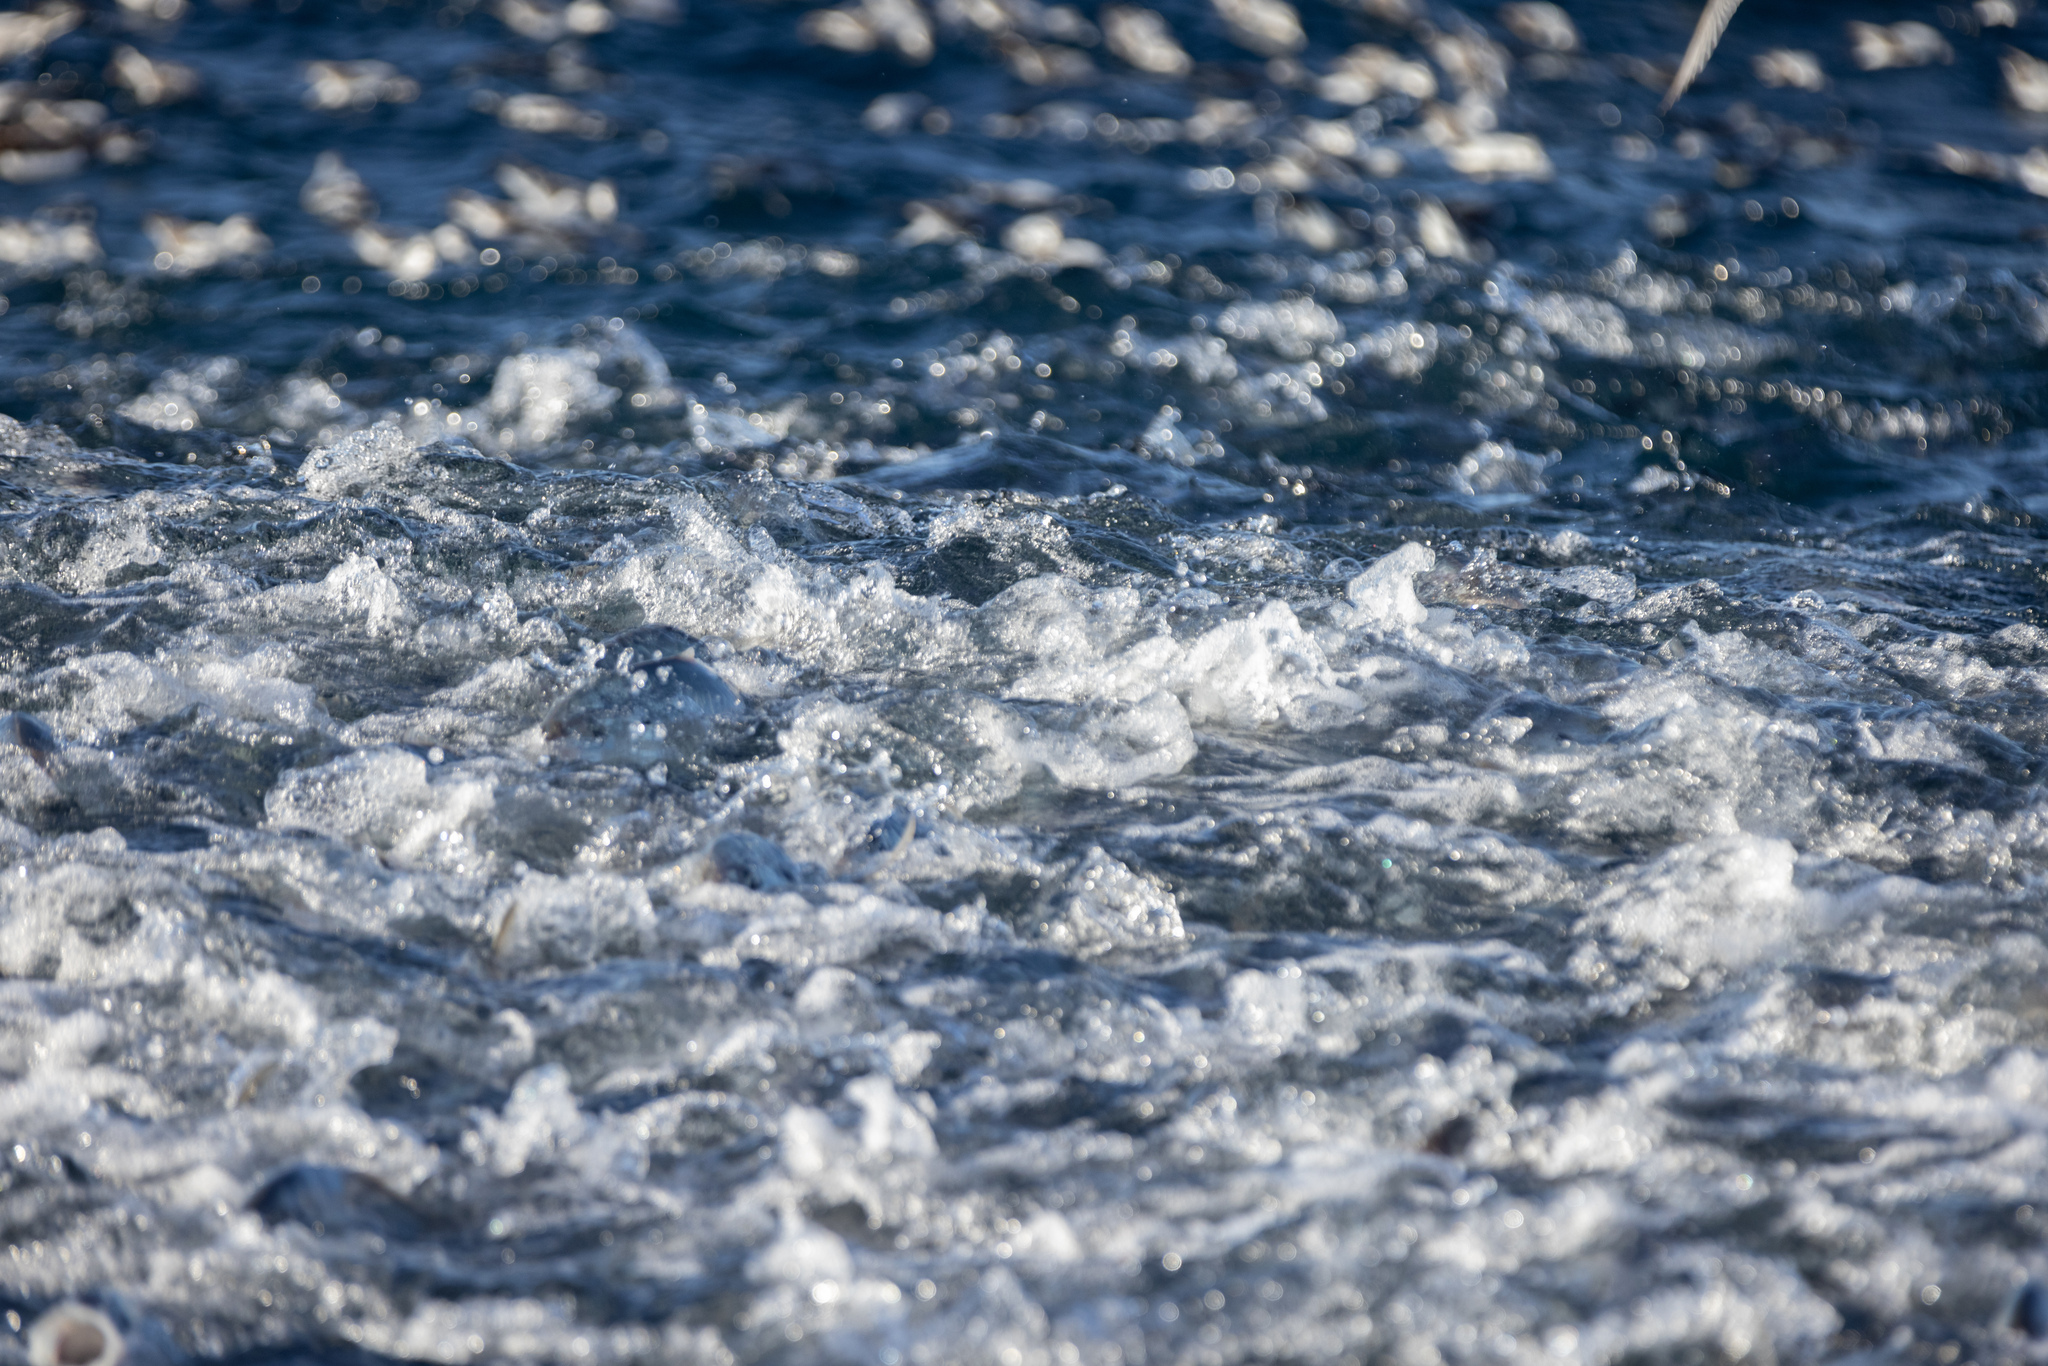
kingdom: Animalia
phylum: Chordata
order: Perciformes
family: Carangidae
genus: Pseudocaranx
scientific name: Pseudocaranx dentex
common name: White trevally
